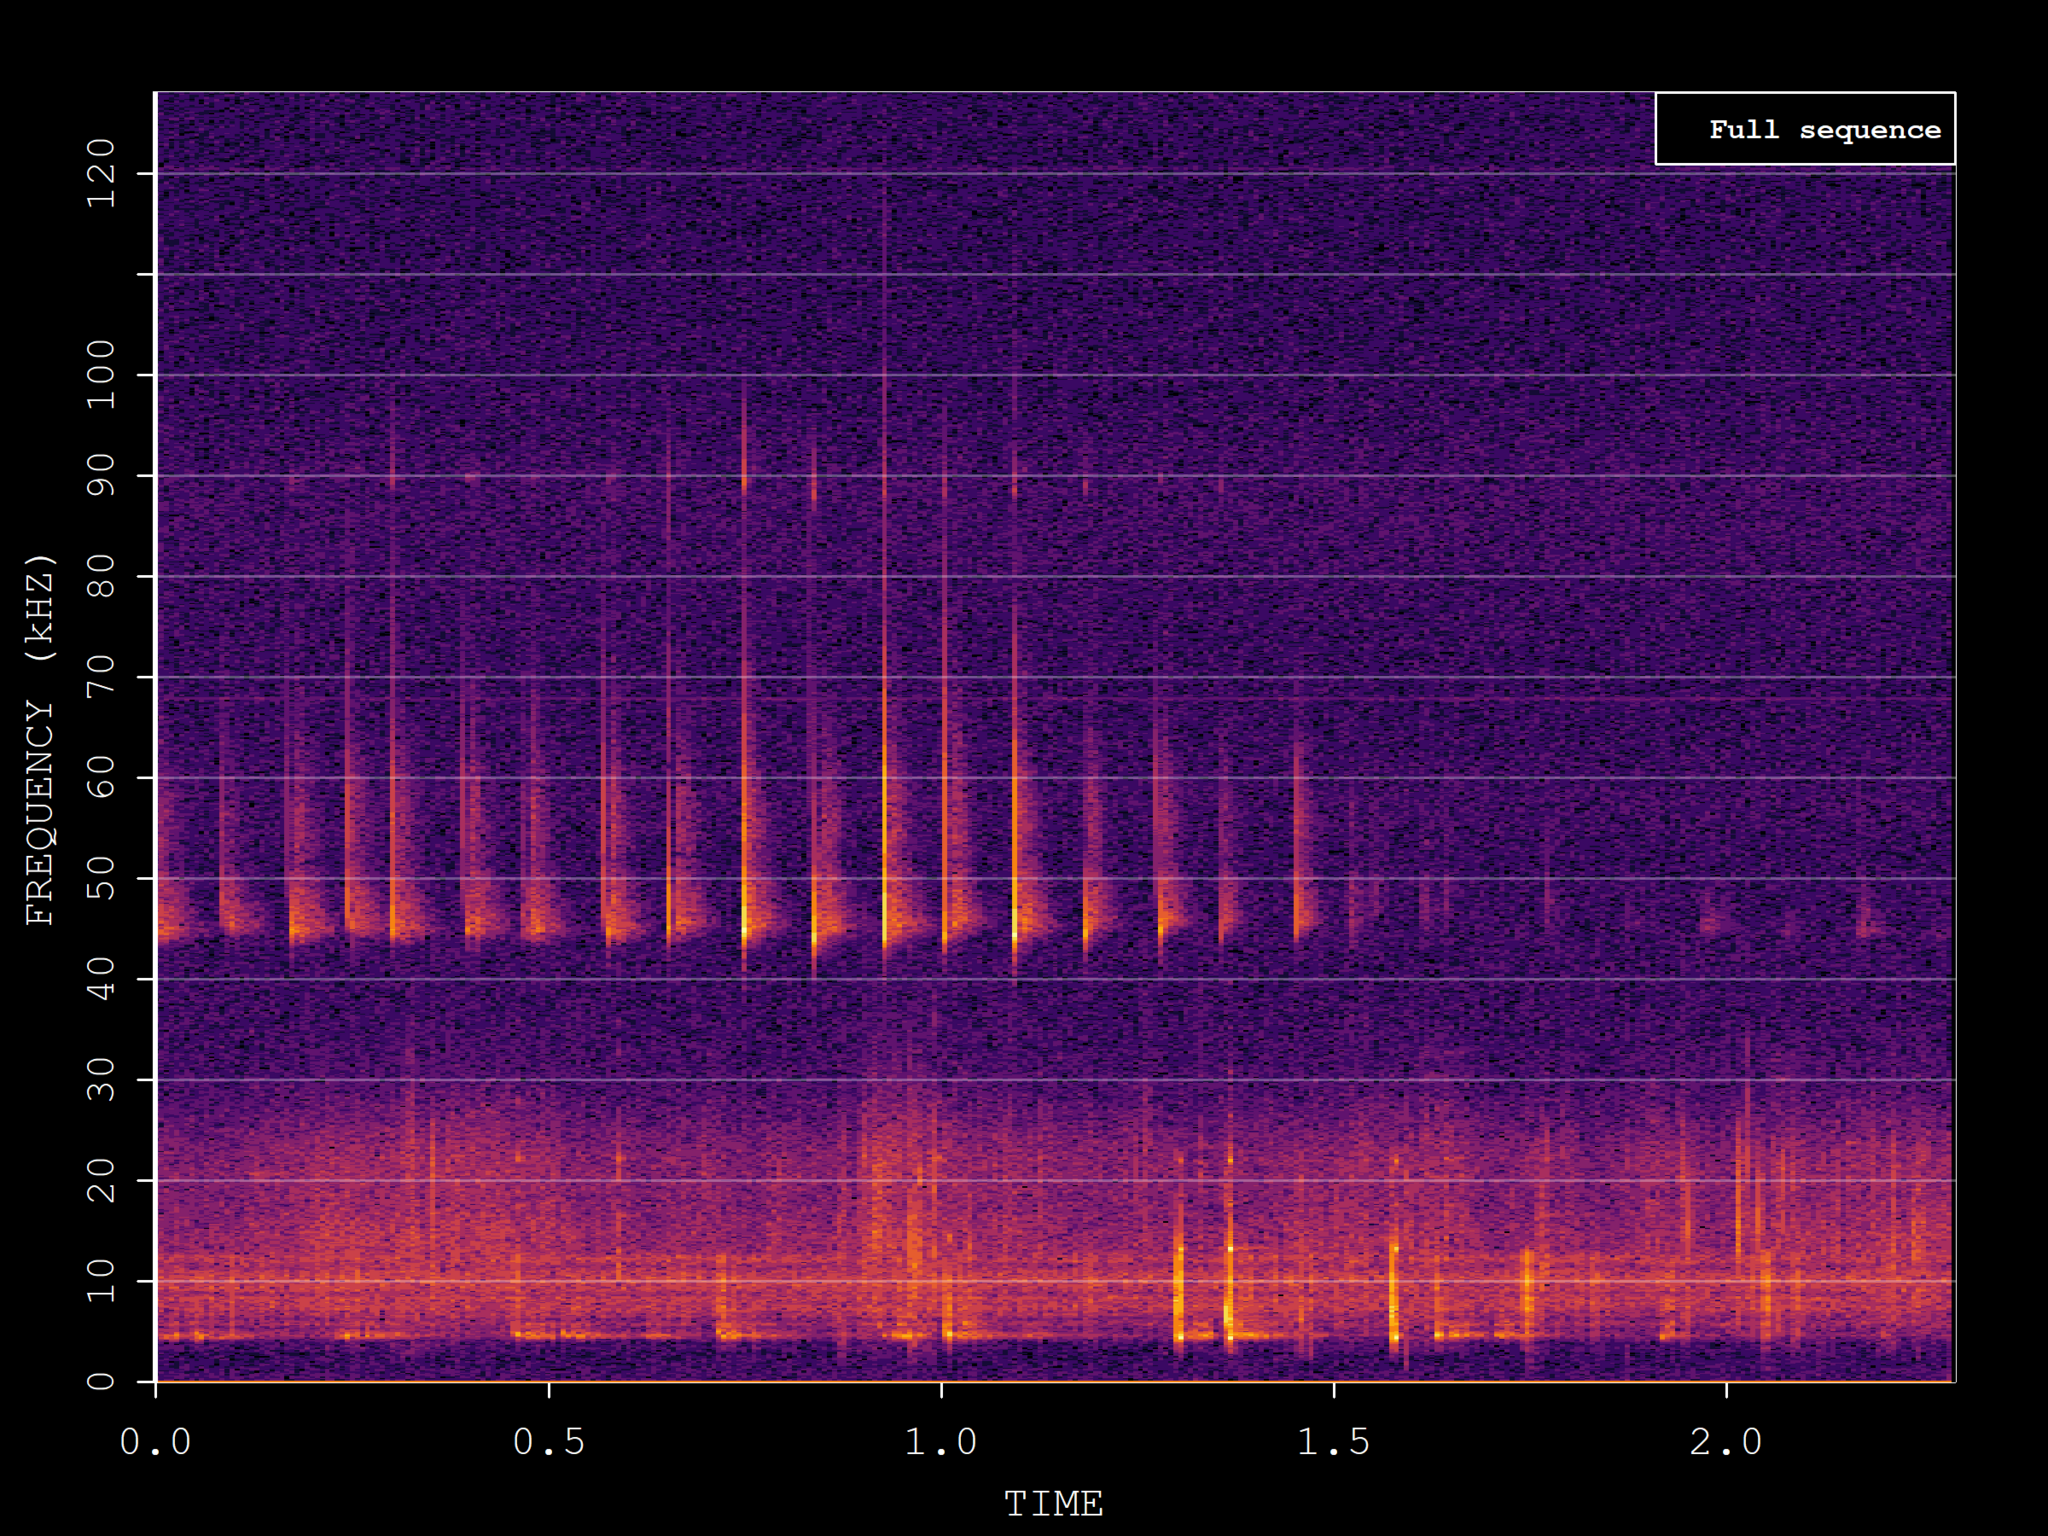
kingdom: Animalia
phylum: Chordata
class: Mammalia
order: Chiroptera
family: Vespertilionidae
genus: Pipistrellus
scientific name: Pipistrellus pipistrellus
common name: Common pipistrelle
